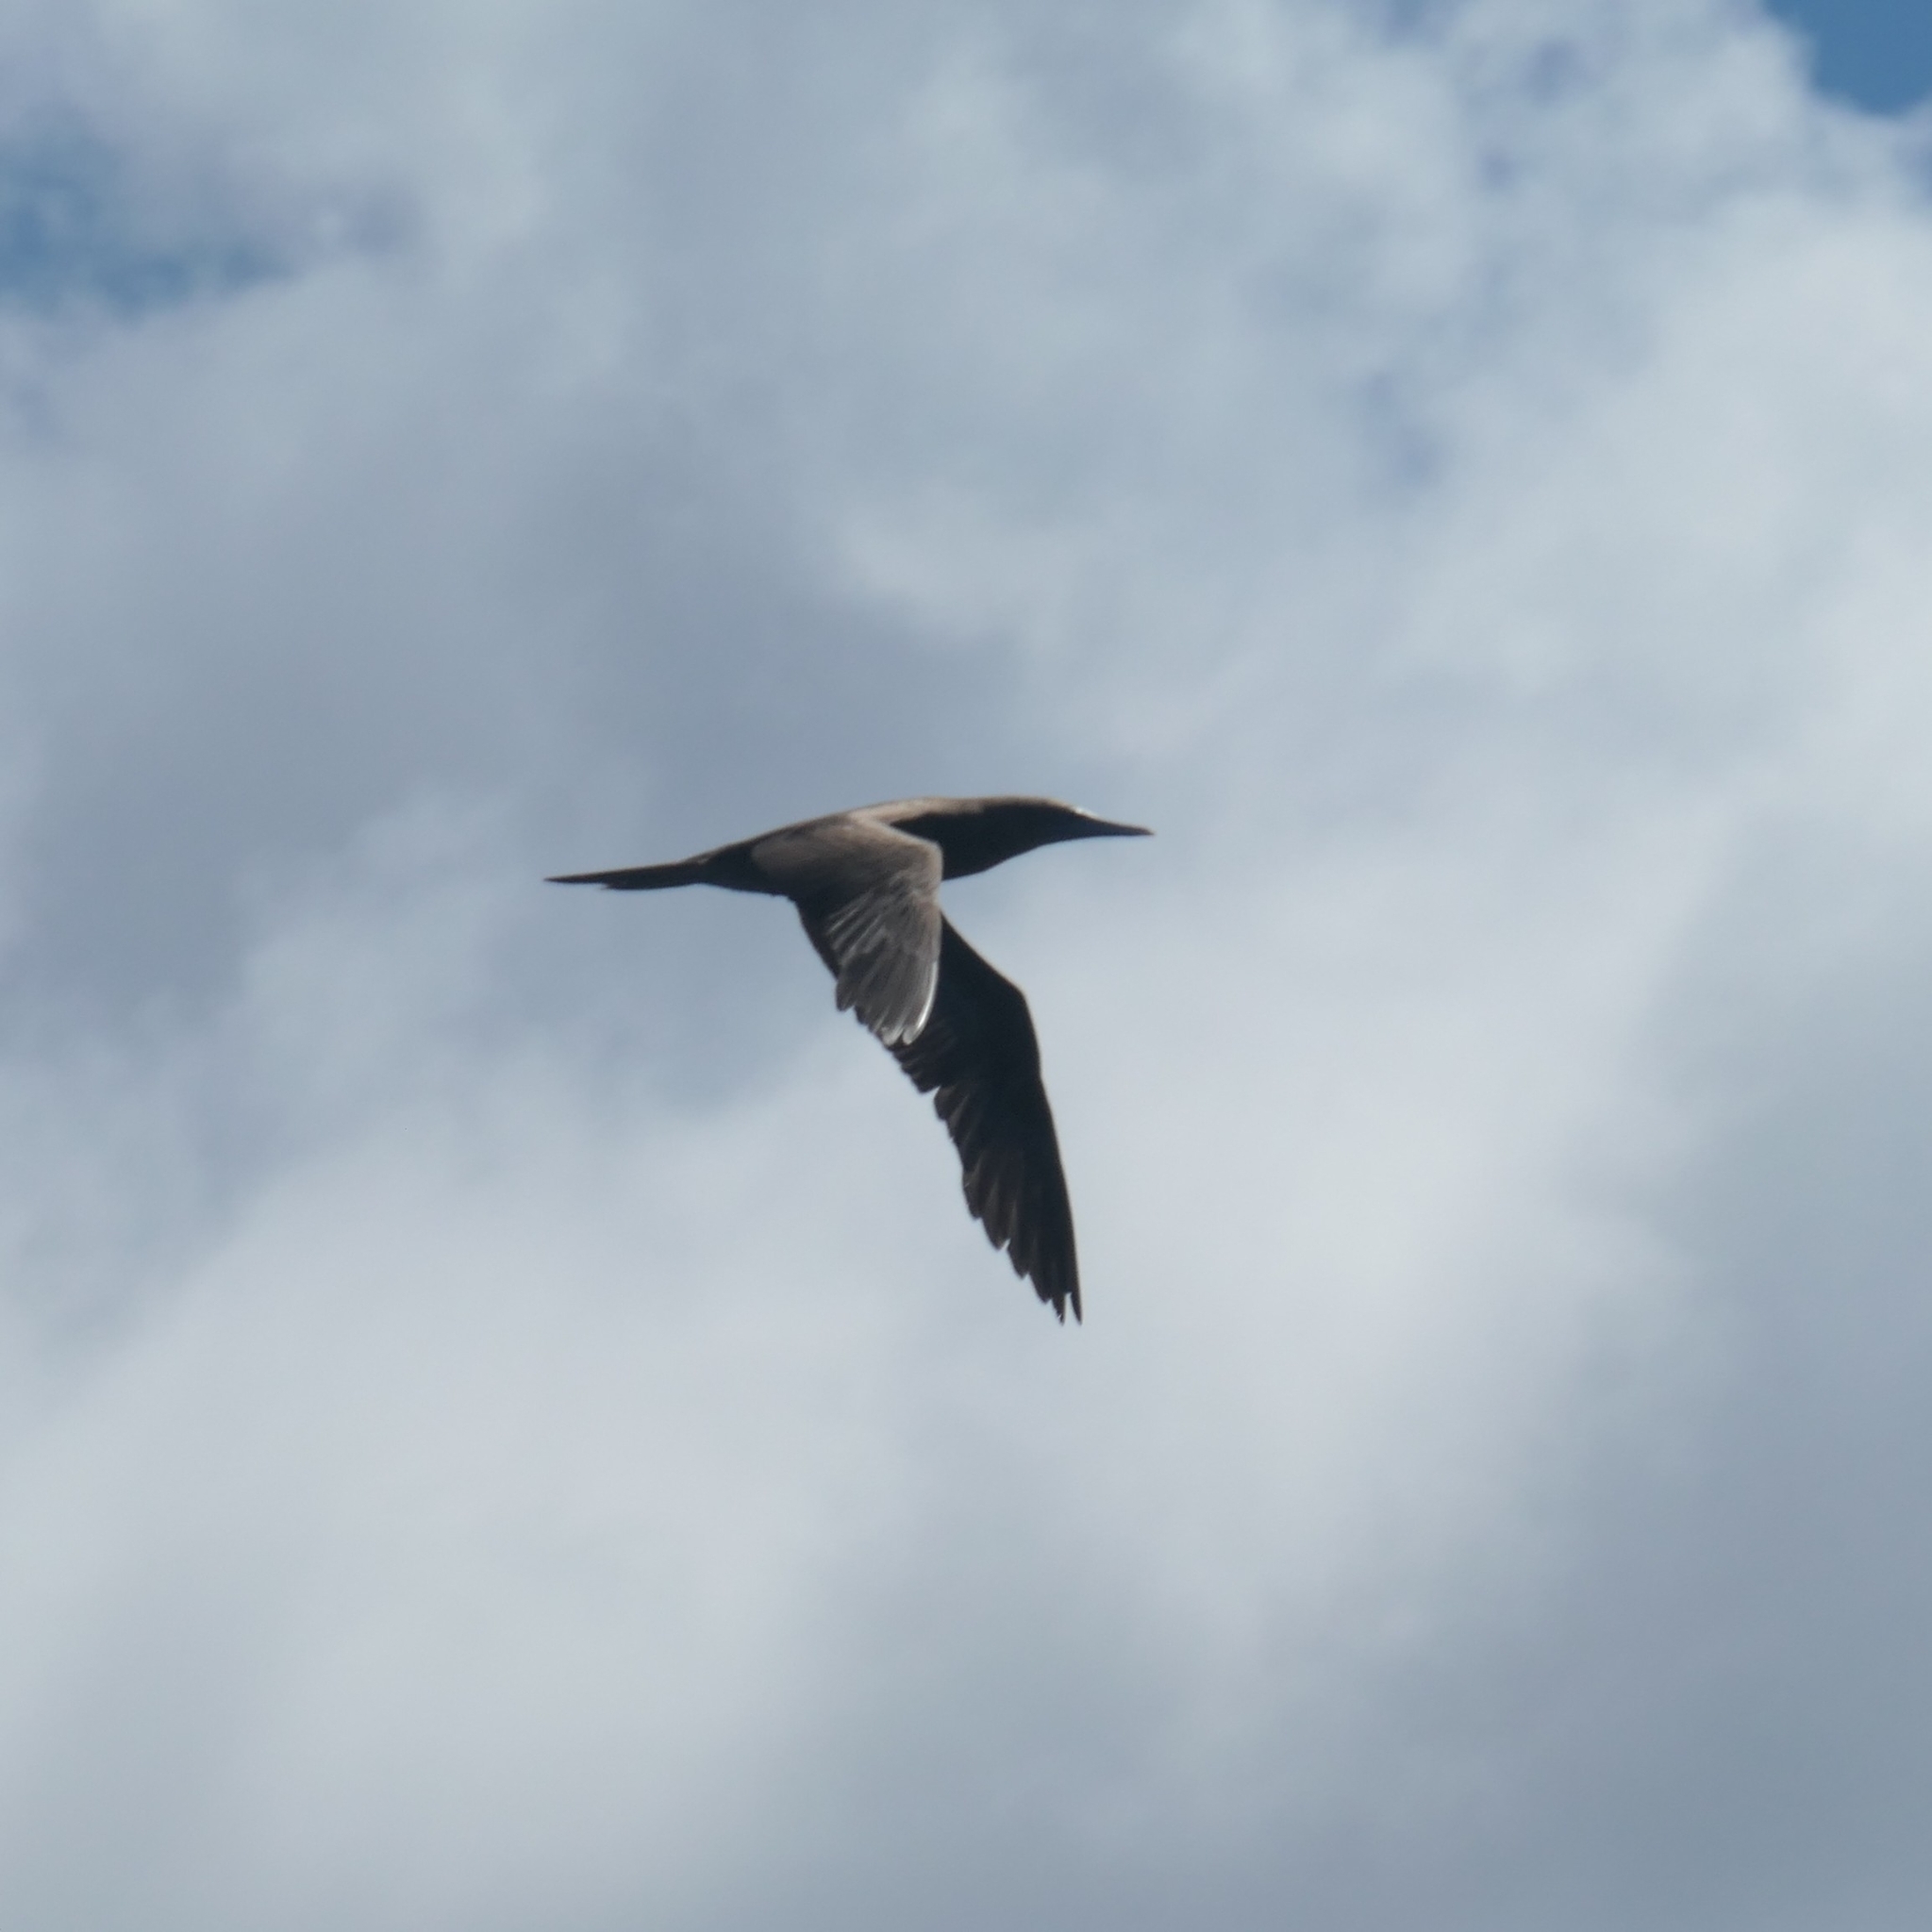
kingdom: Animalia
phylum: Chordata
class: Aves
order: Suliformes
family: Sulidae
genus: Sula
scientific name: Sula leucogaster
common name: Brown booby
